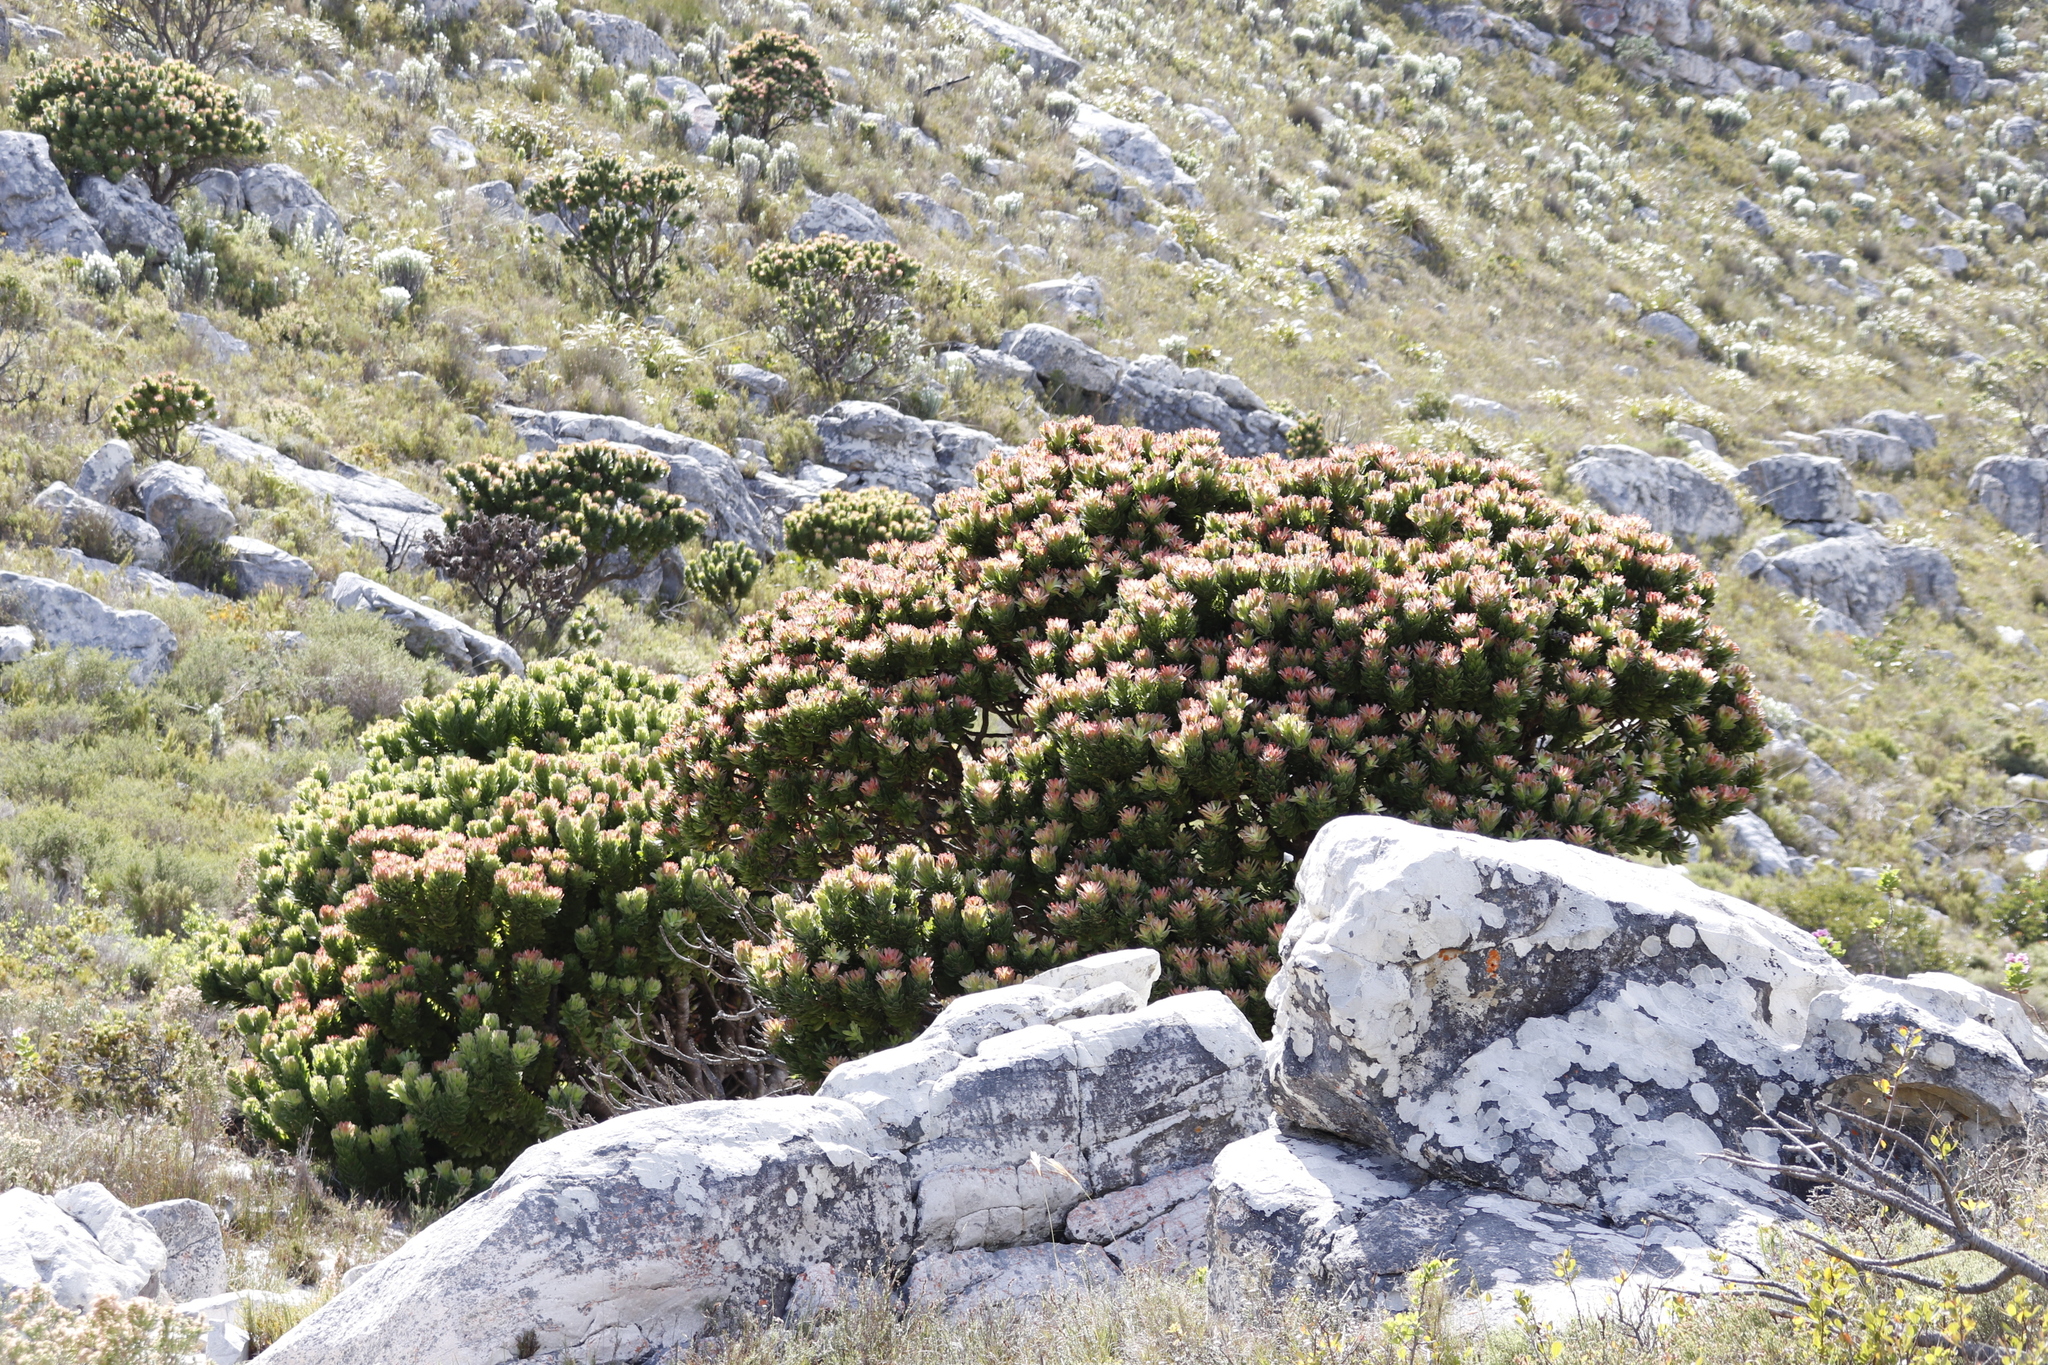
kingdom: Plantae
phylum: Tracheophyta
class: Magnoliopsida
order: Proteales
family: Proteaceae
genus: Mimetes
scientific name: Mimetes fimbriifolius
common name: Fringed bottlebrush
